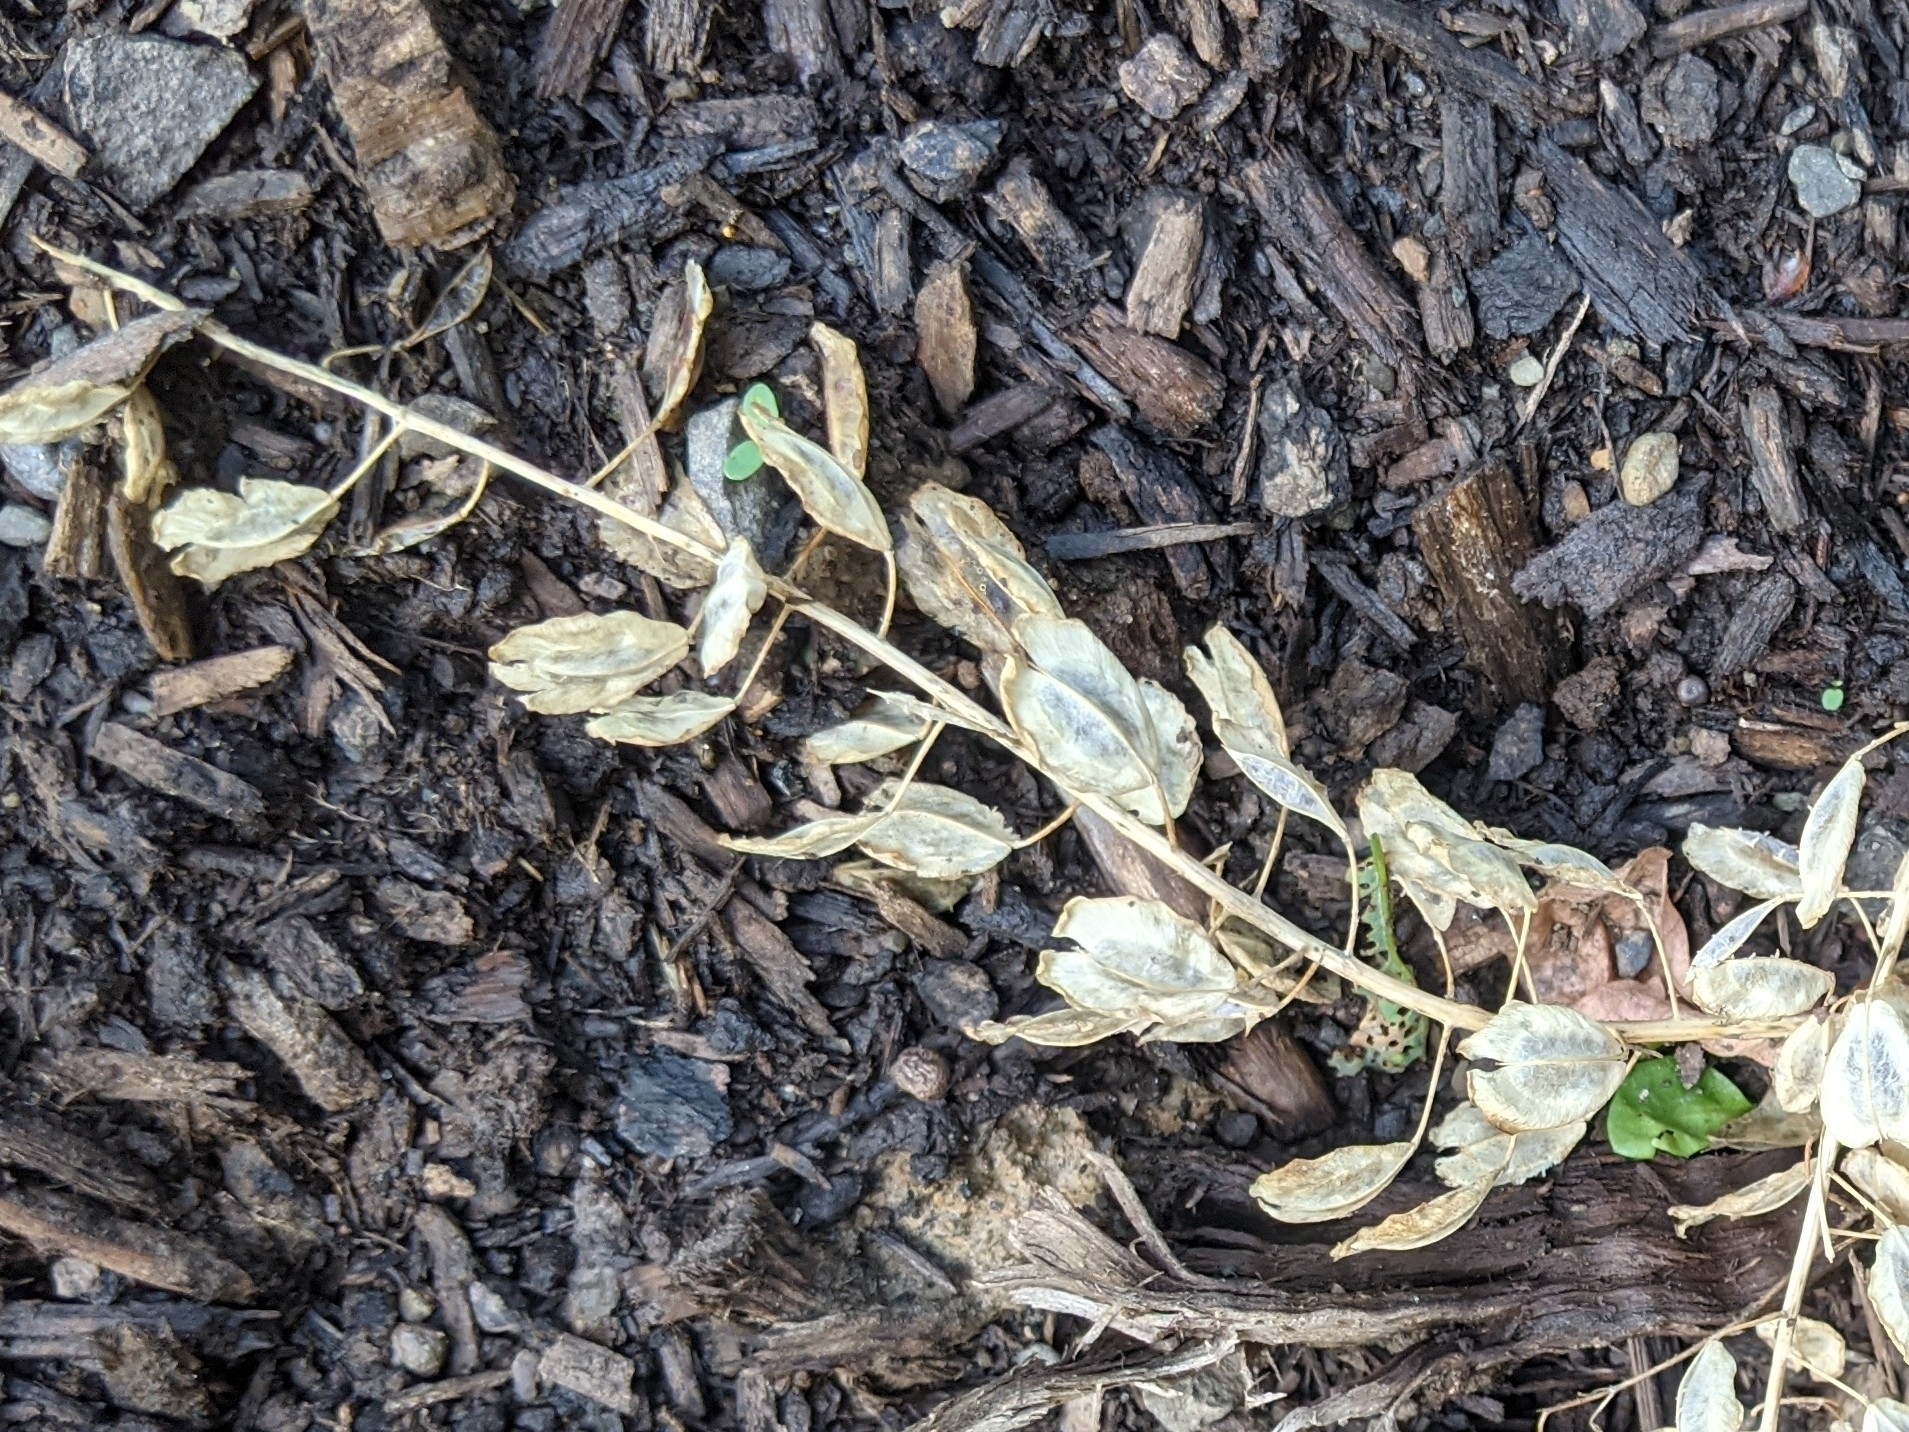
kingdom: Plantae
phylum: Tracheophyta
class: Magnoliopsida
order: Brassicales
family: Brassicaceae
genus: Thlaspi
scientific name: Thlaspi arvense
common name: Field pennycress
